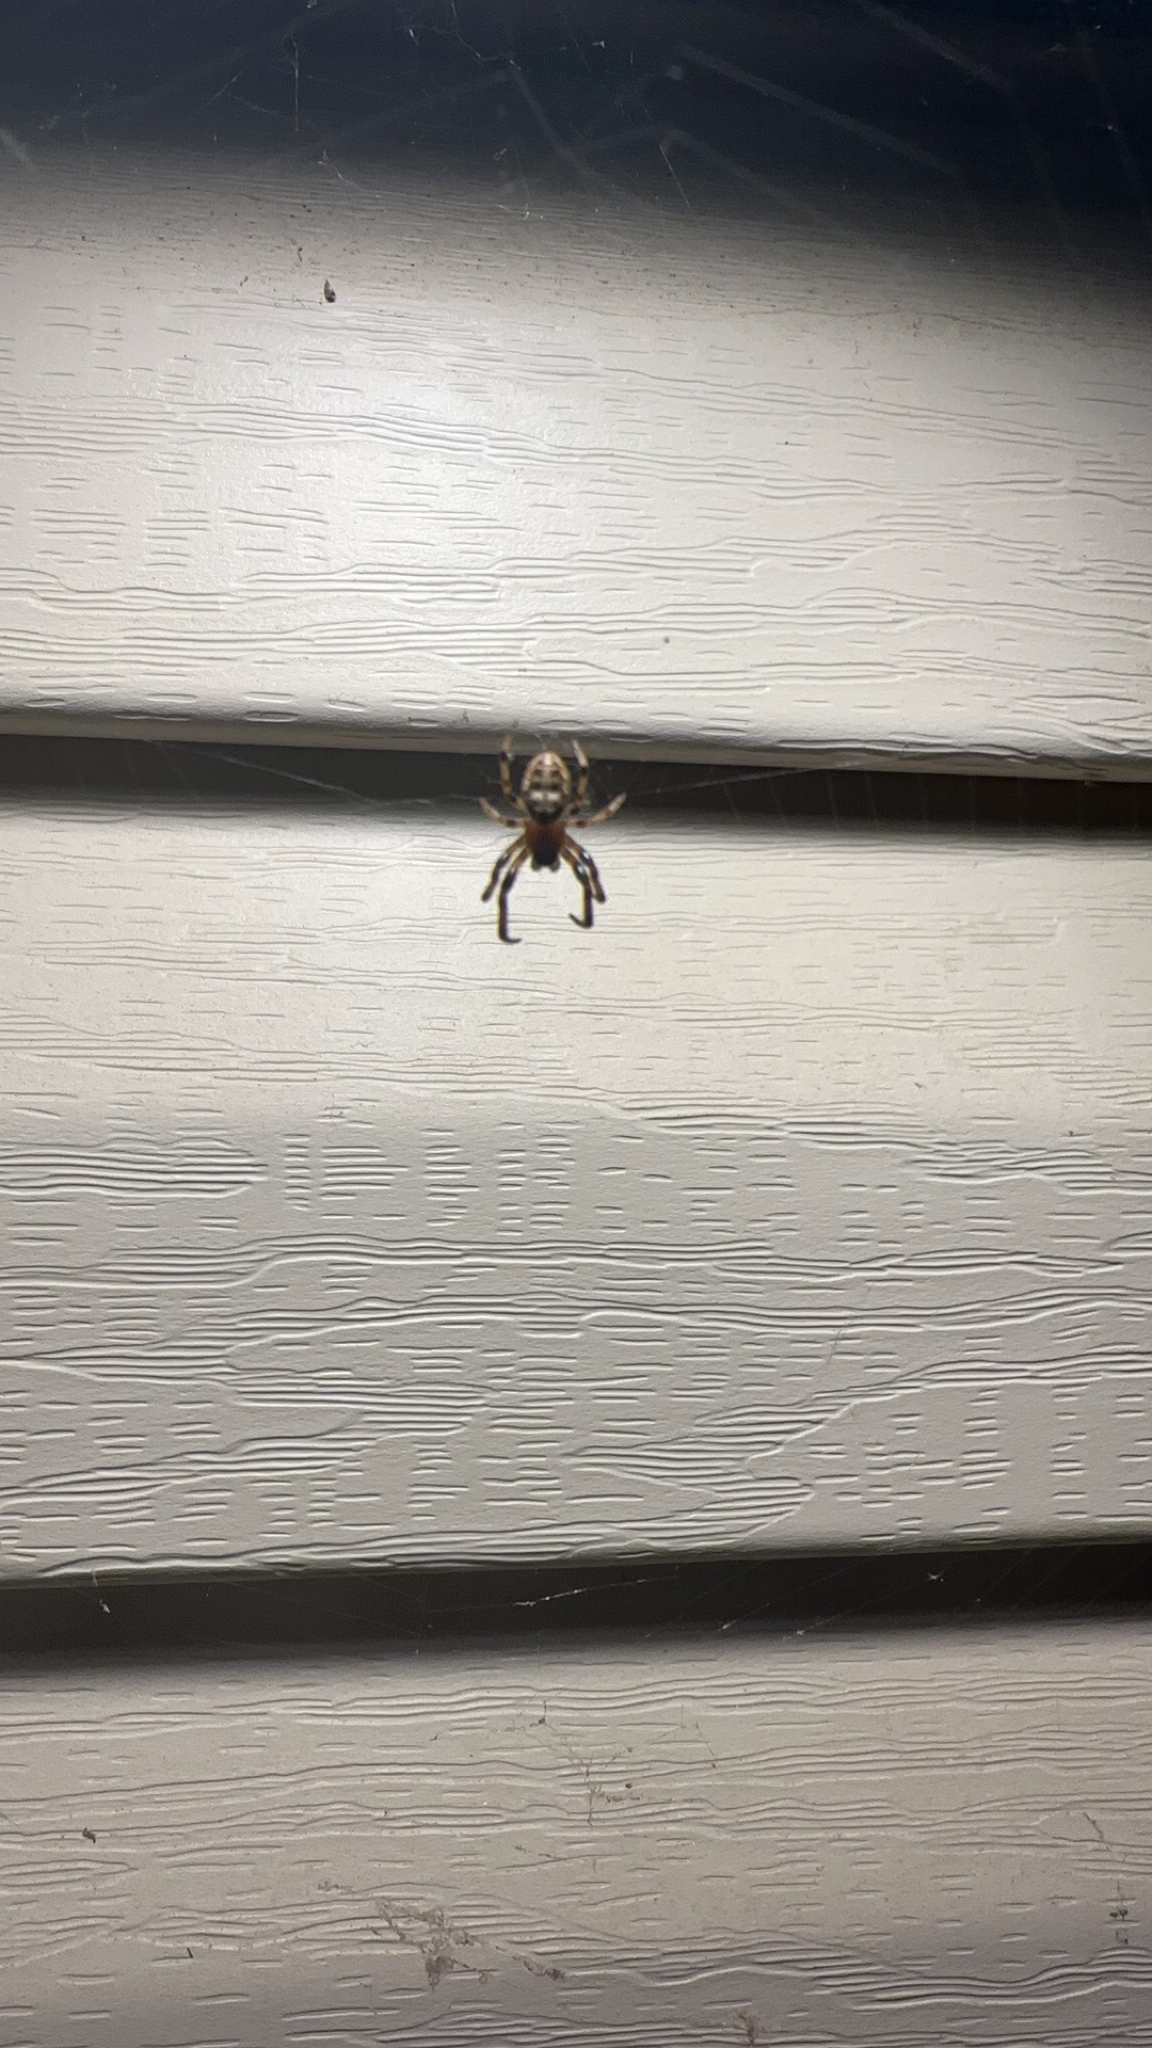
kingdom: Animalia
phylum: Arthropoda
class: Arachnida
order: Araneae
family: Araneidae
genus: Larinioides
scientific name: Larinioides cornutus
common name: Furrow orbweaver
